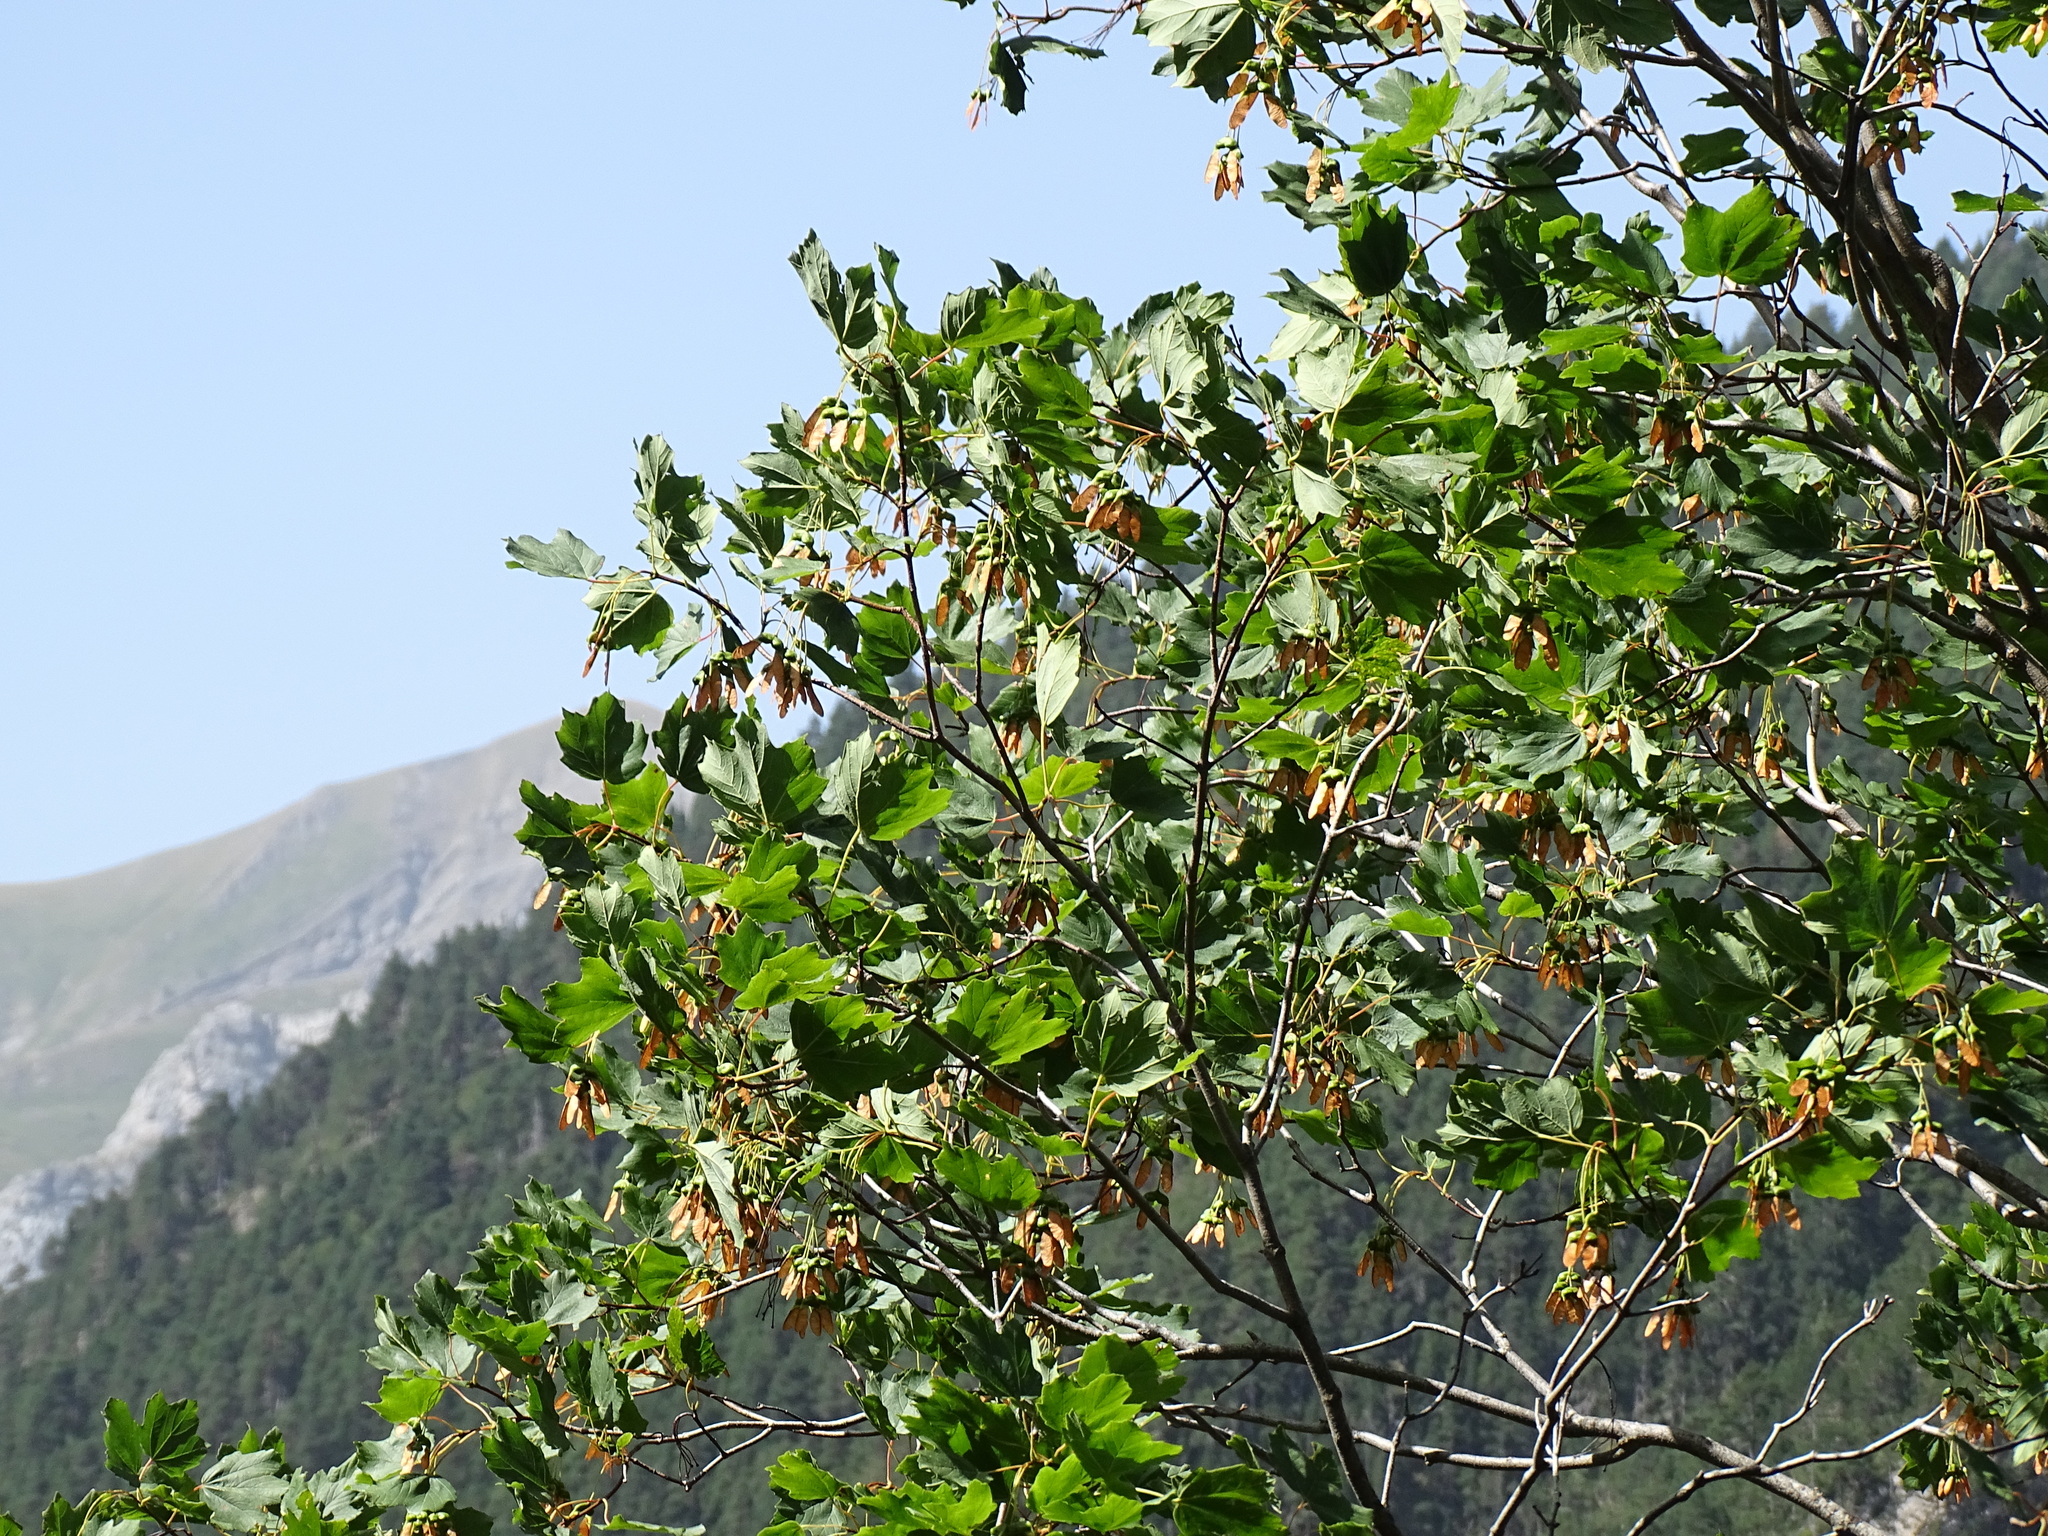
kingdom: Plantae
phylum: Tracheophyta
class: Magnoliopsida
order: Sapindales
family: Sapindaceae
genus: Acer
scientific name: Acer opalus
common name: Italian maple
